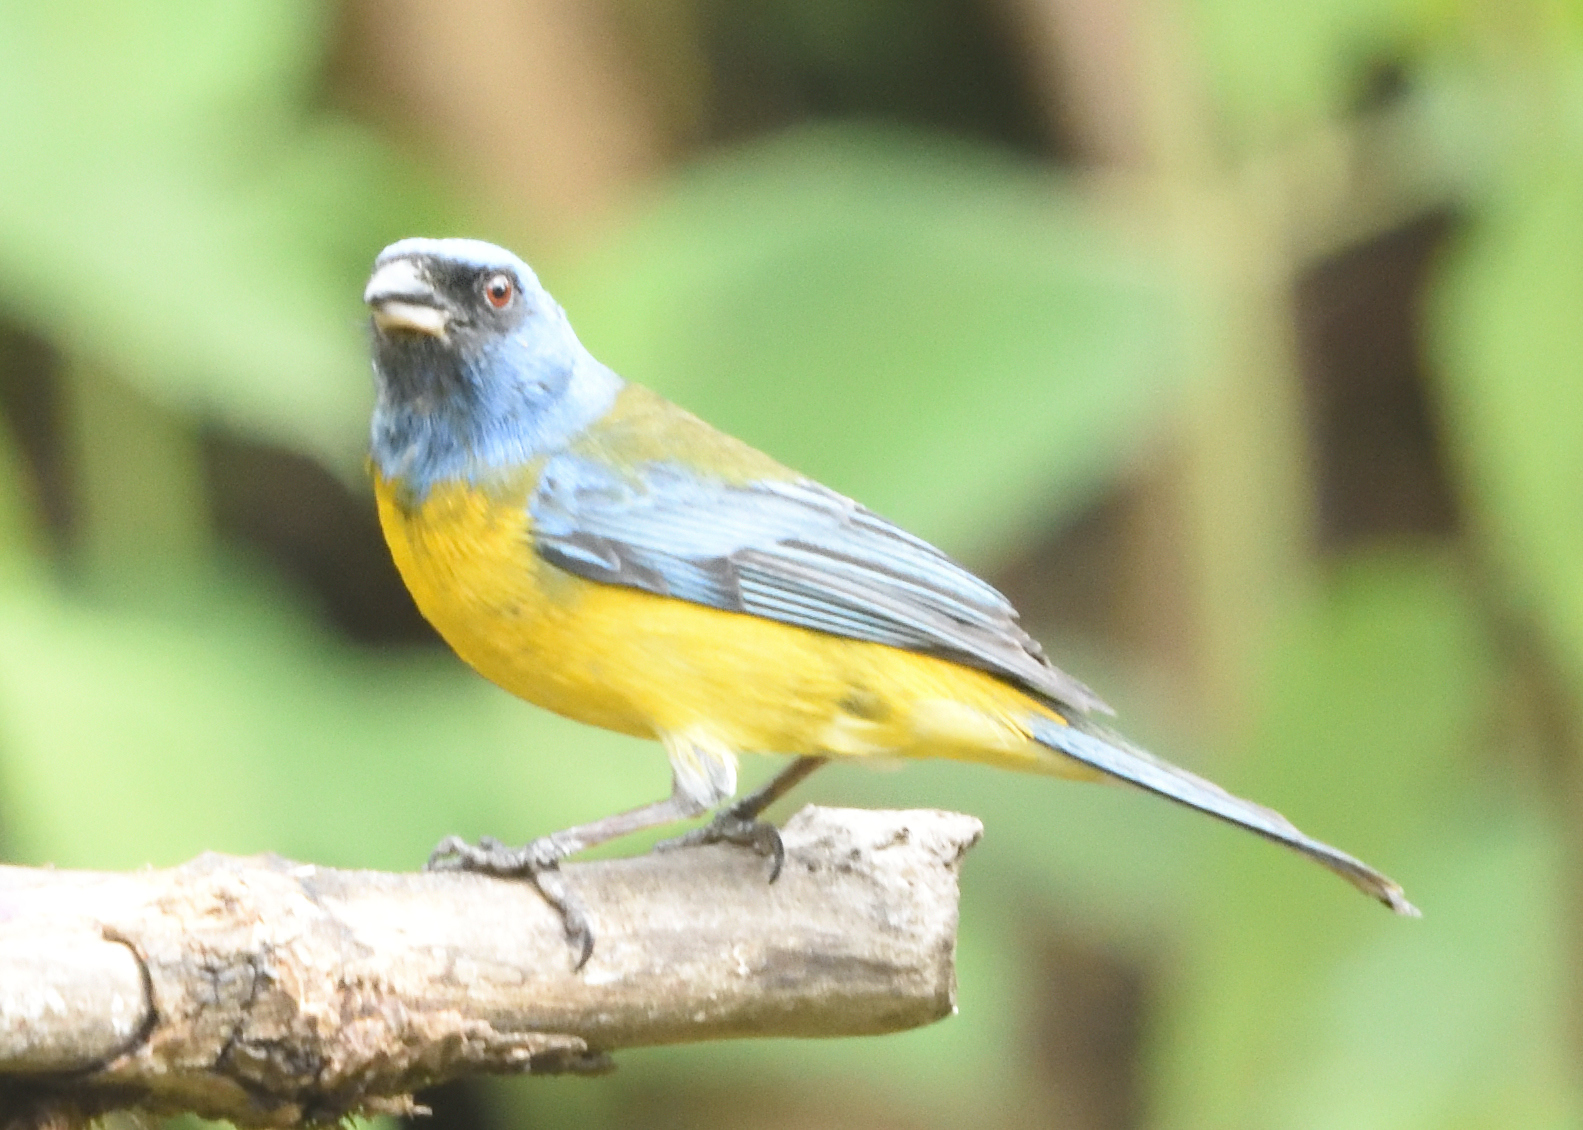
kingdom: Animalia
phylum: Chordata
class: Aves
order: Passeriformes
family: Thraupidae
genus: Rauenia
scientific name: Rauenia bonariensis
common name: Blue-and-yellow tanager
